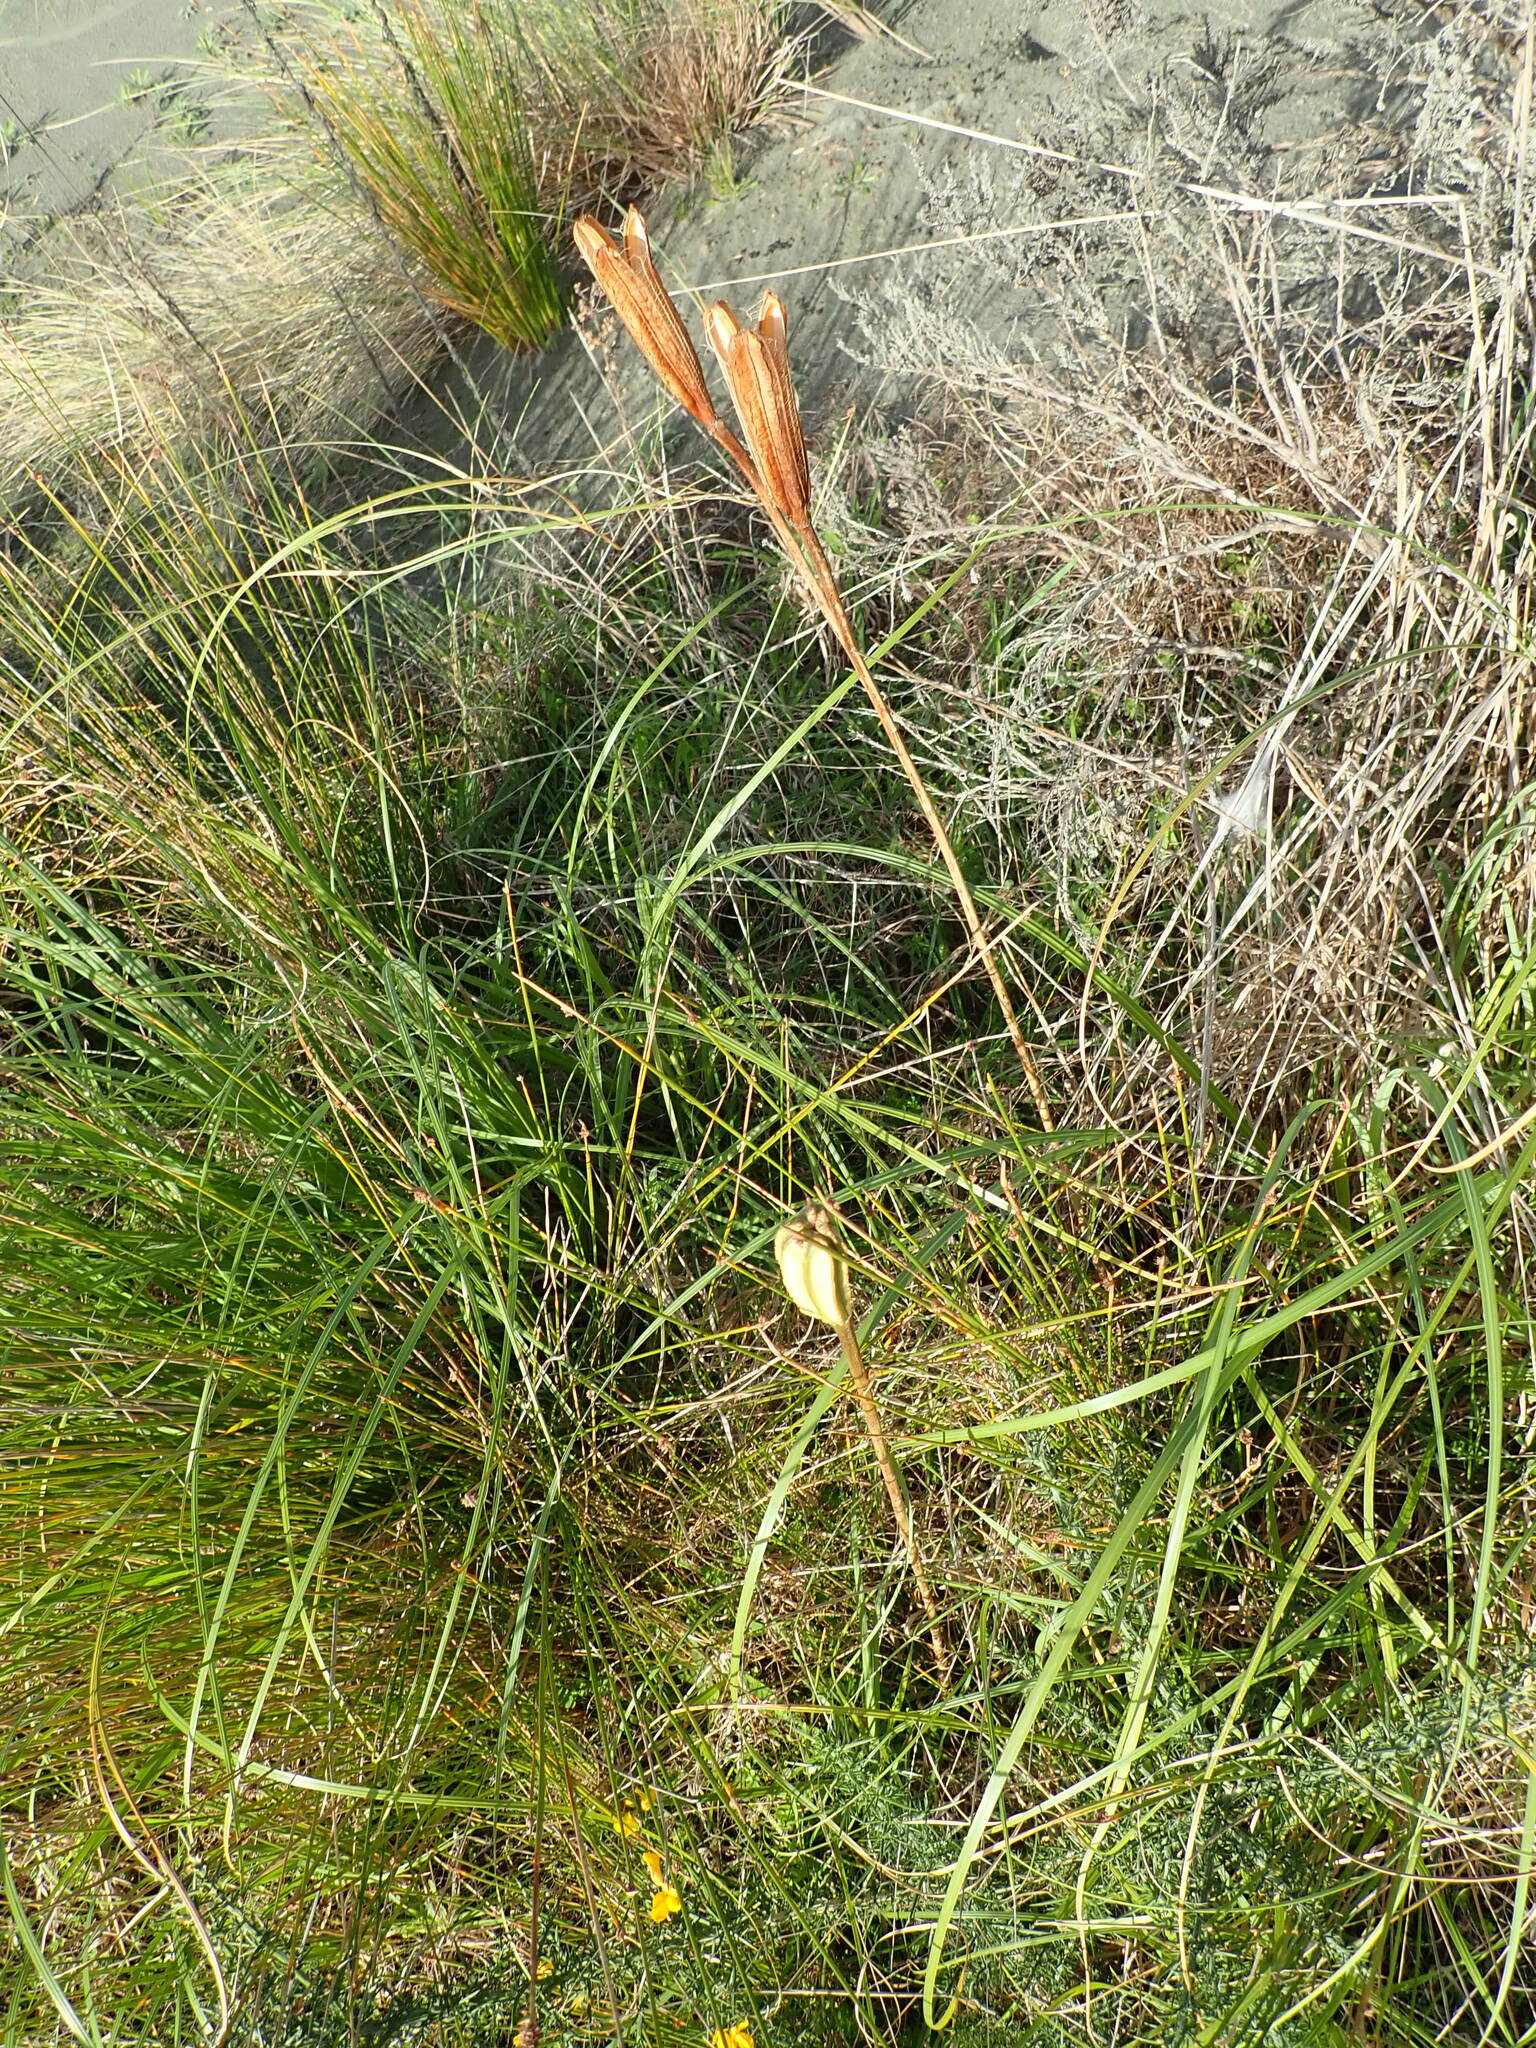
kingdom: Plantae
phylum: Tracheophyta
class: Liliopsida
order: Liliales
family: Liliaceae
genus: Lilium
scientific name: Lilium formosanum
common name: Formosa lily
